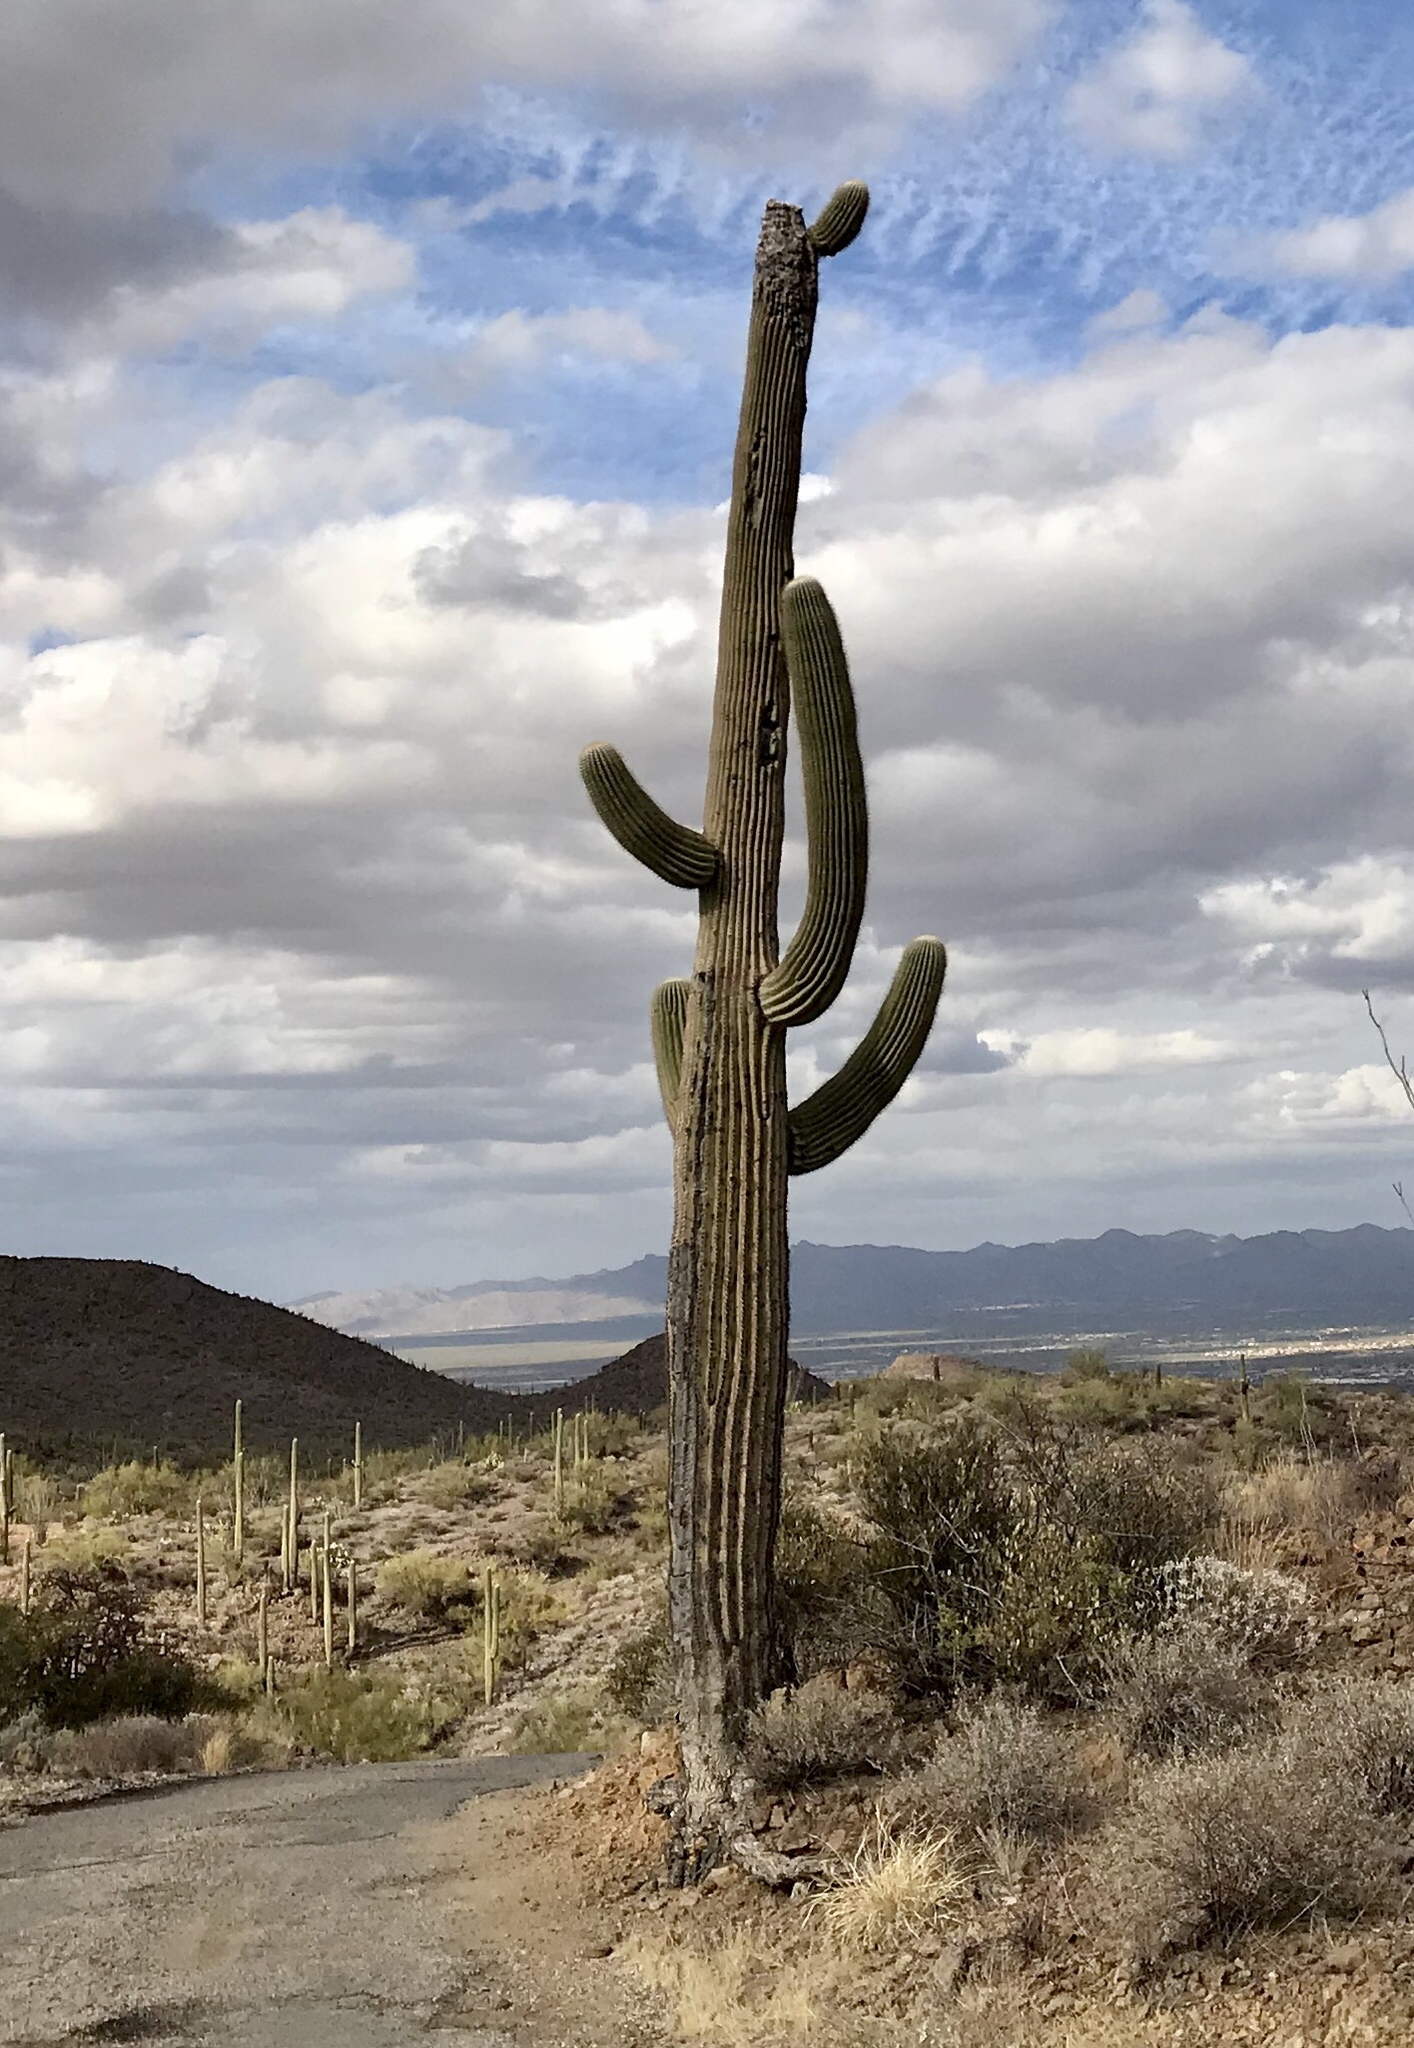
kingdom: Plantae
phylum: Tracheophyta
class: Magnoliopsida
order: Caryophyllales
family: Cactaceae
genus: Carnegiea
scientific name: Carnegiea gigantea
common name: Saguaro
